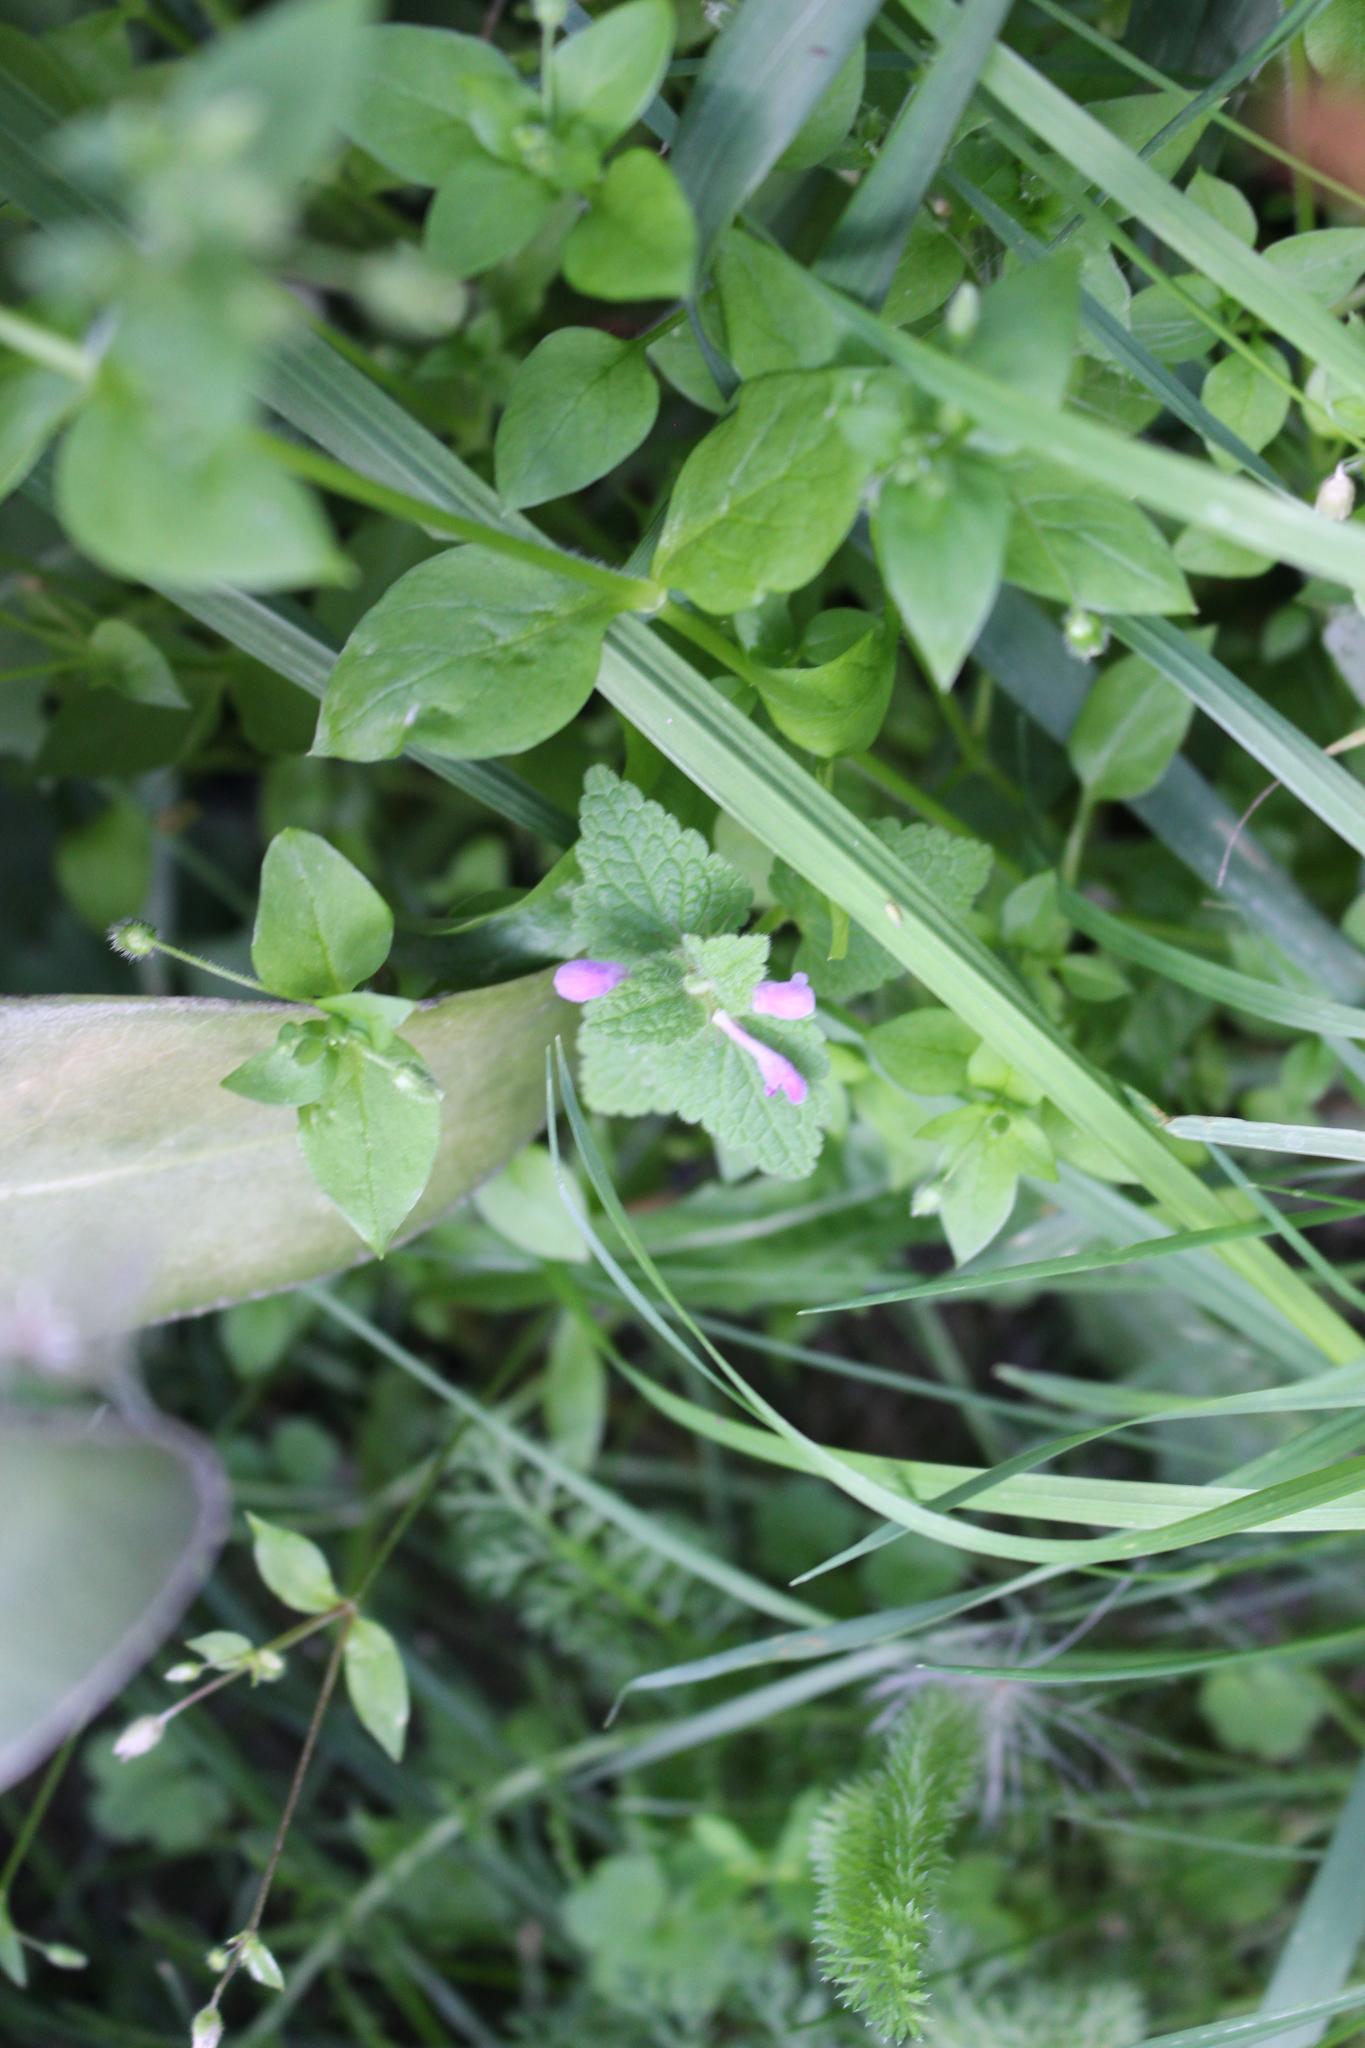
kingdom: Plantae
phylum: Tracheophyta
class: Magnoliopsida
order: Caryophyllales
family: Caryophyllaceae
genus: Stellaria
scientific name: Stellaria media
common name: Common chickweed
